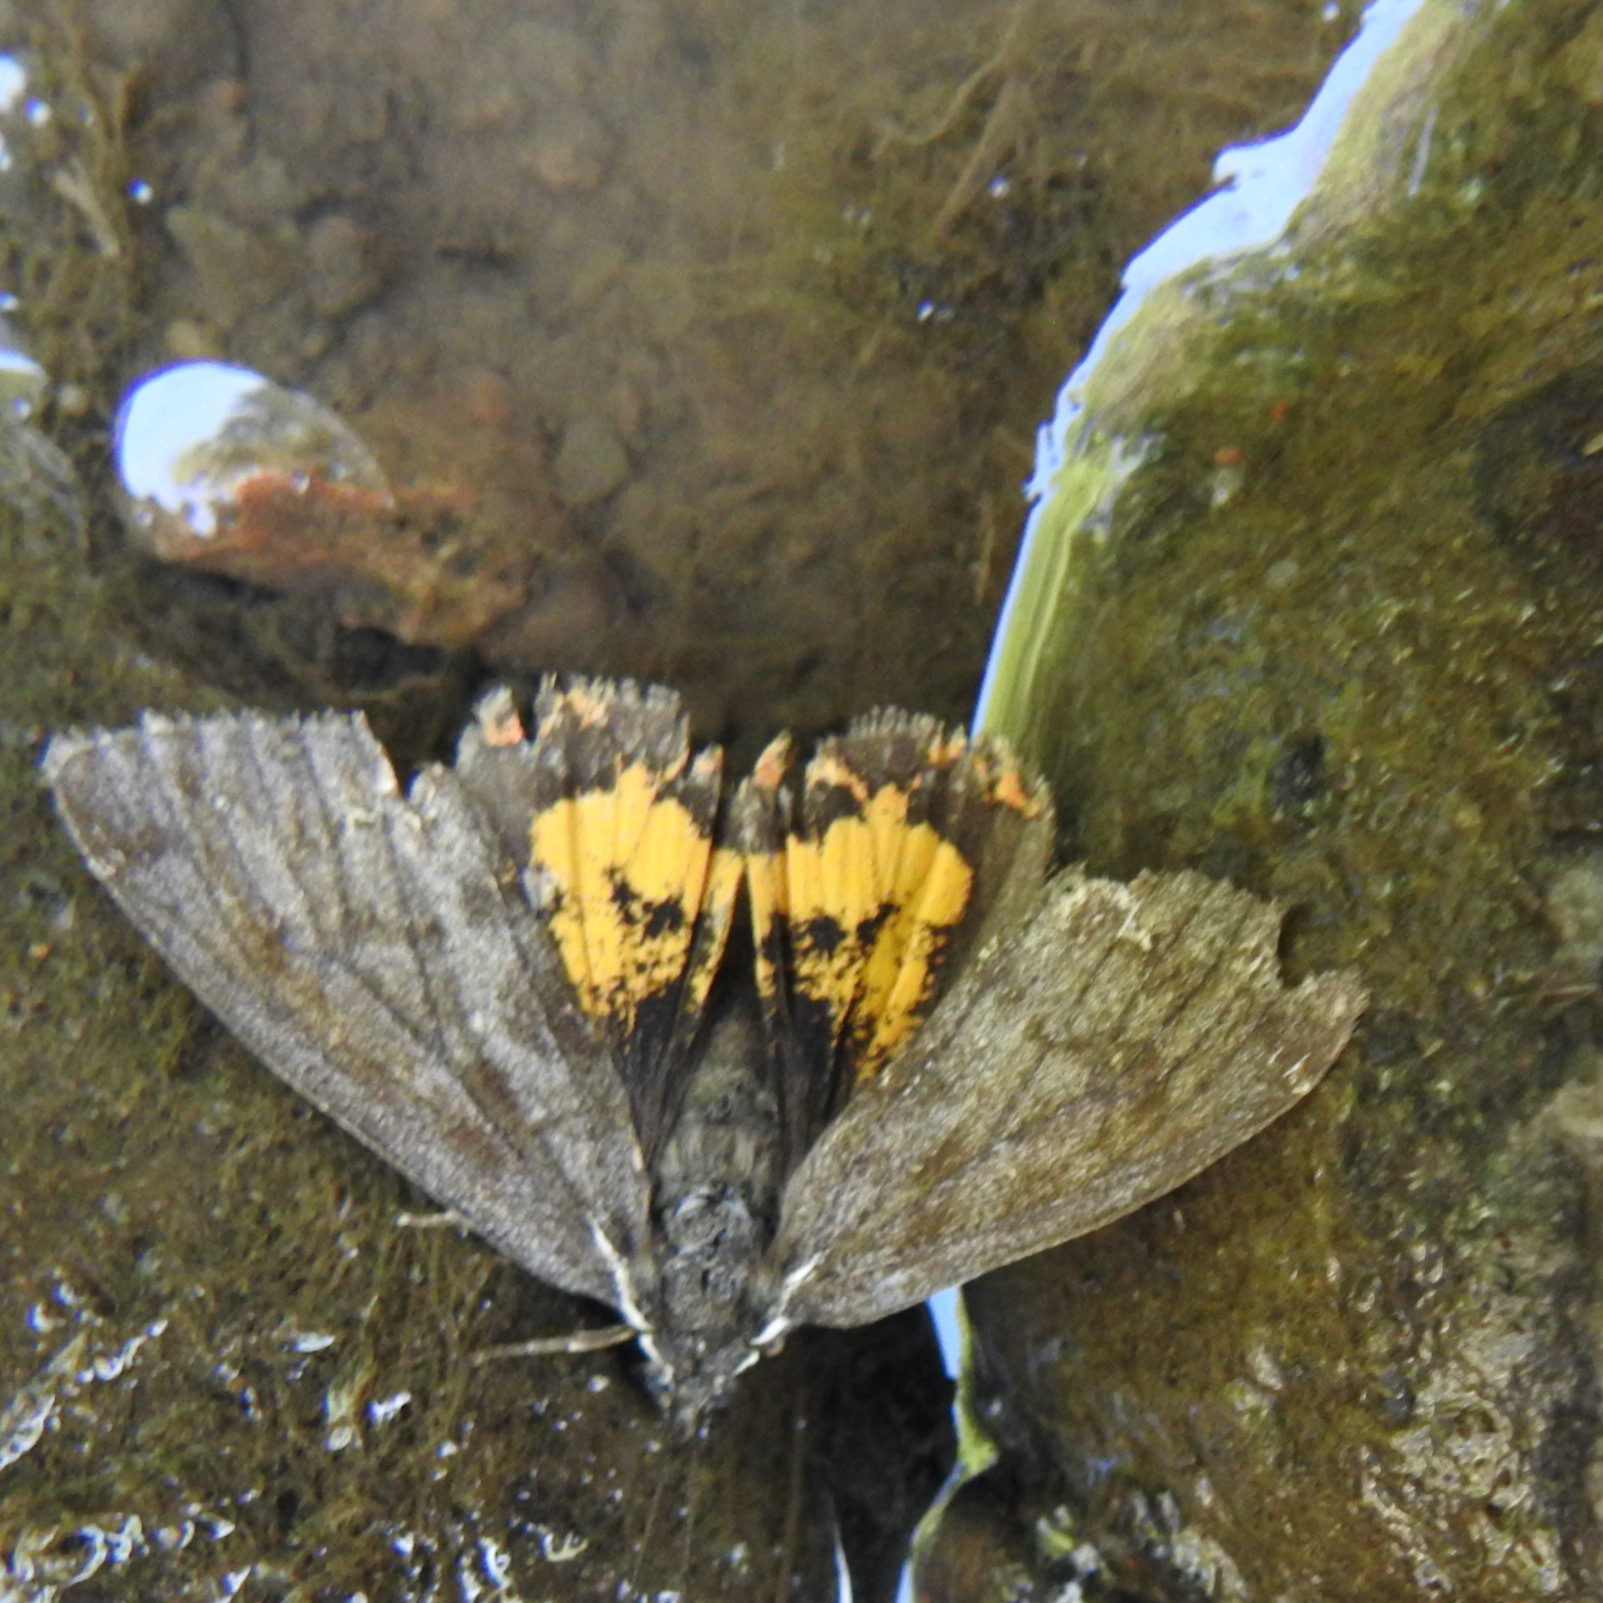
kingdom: Animalia
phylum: Arthropoda
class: Insecta
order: Lepidoptera
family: Erebidae
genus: Leptarctia
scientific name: Leptarctia californiae
